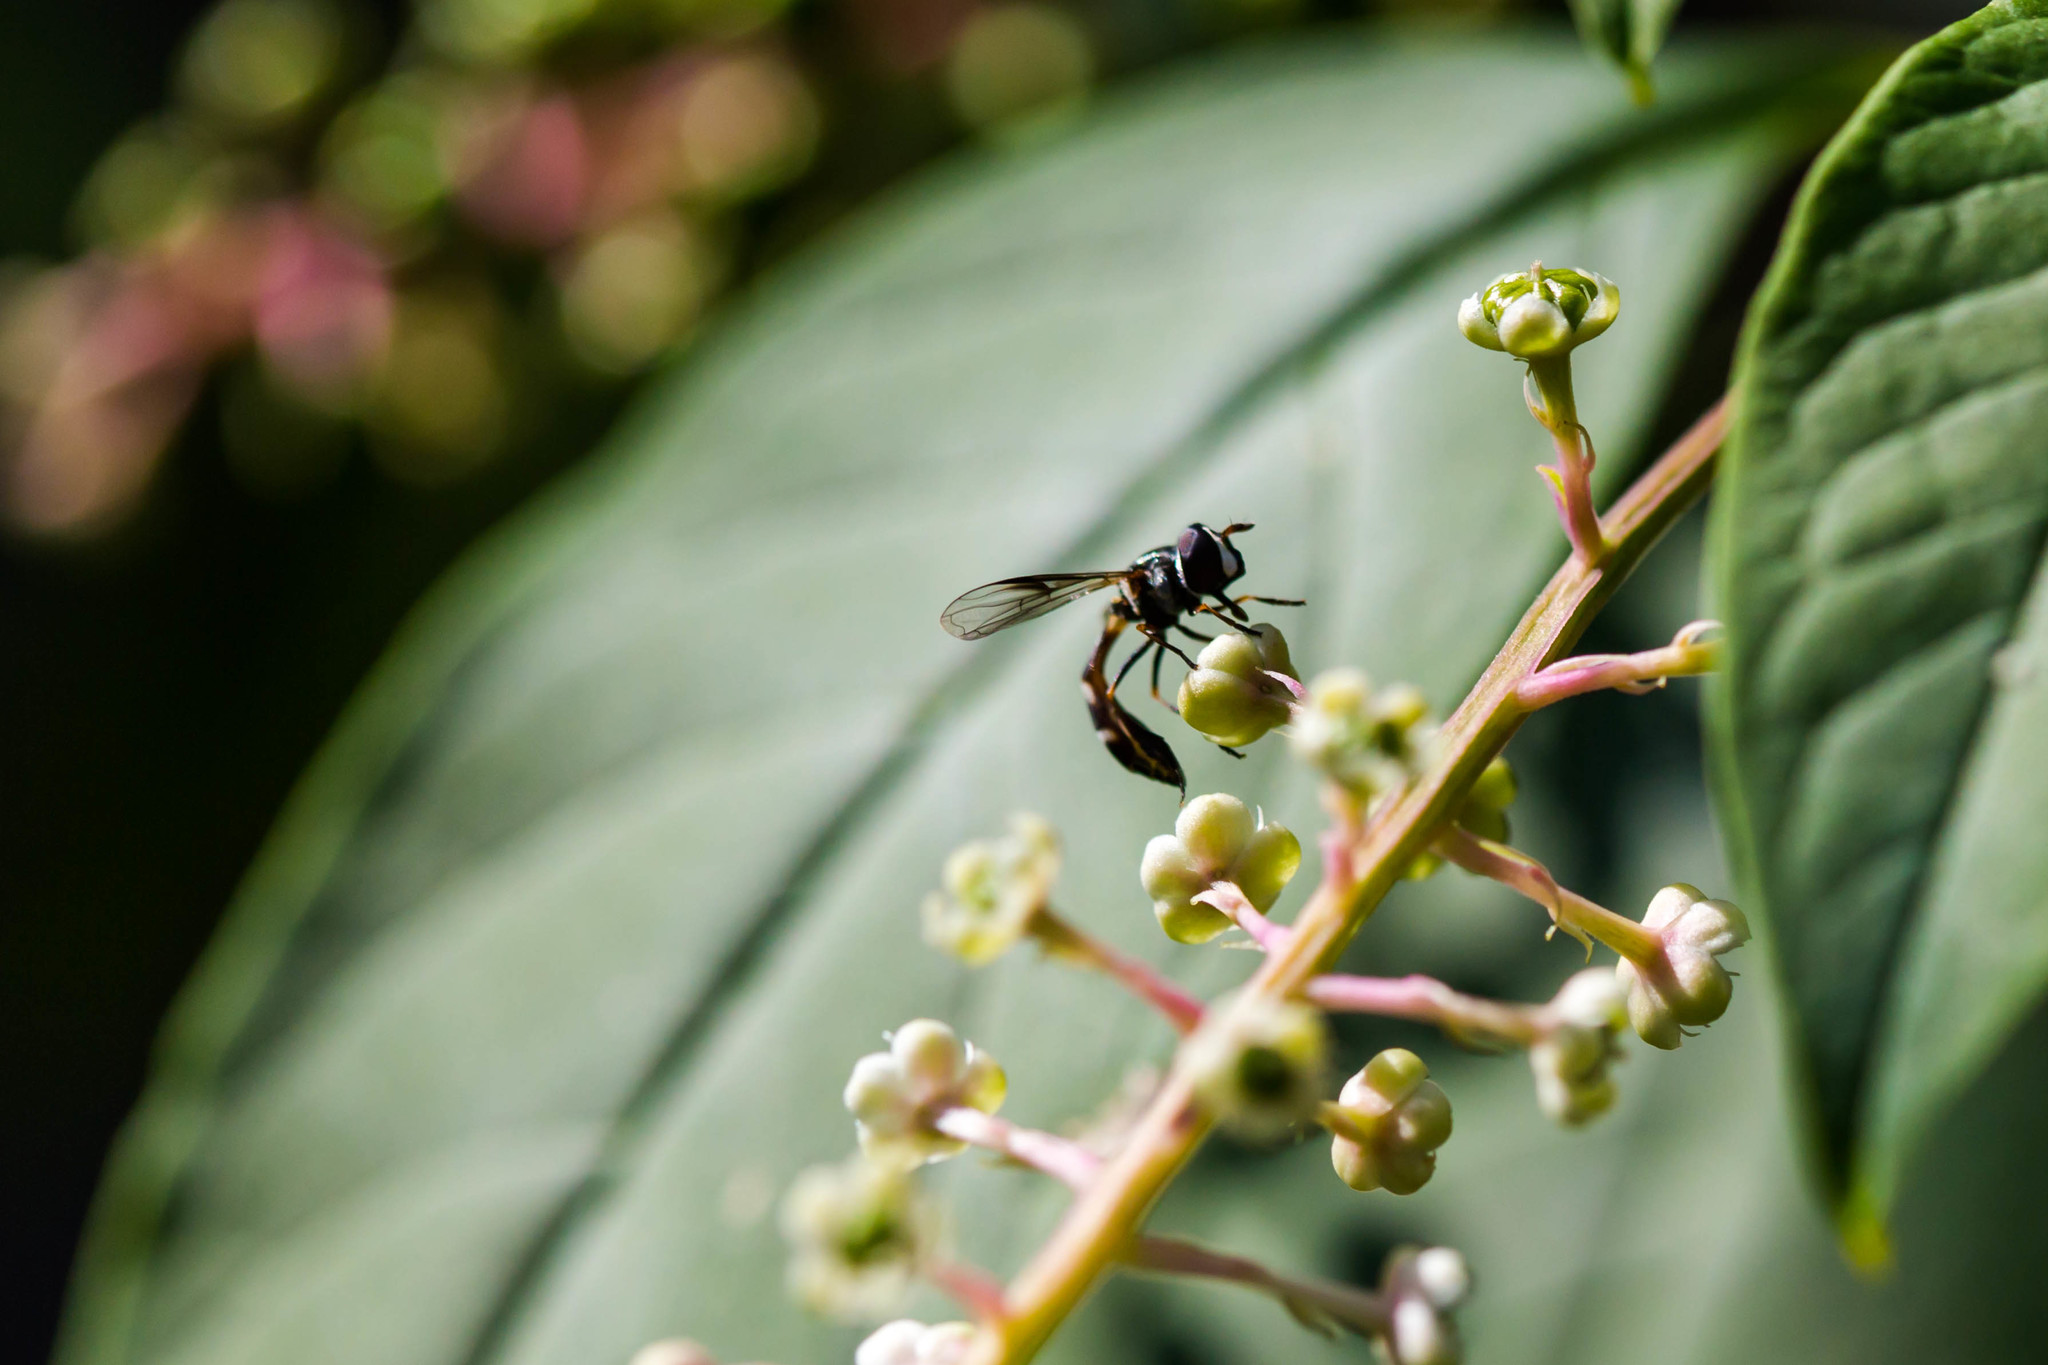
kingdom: Animalia
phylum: Arthropoda
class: Insecta
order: Diptera
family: Syrphidae
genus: Dioprosopa
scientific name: Dioprosopa clavatus
